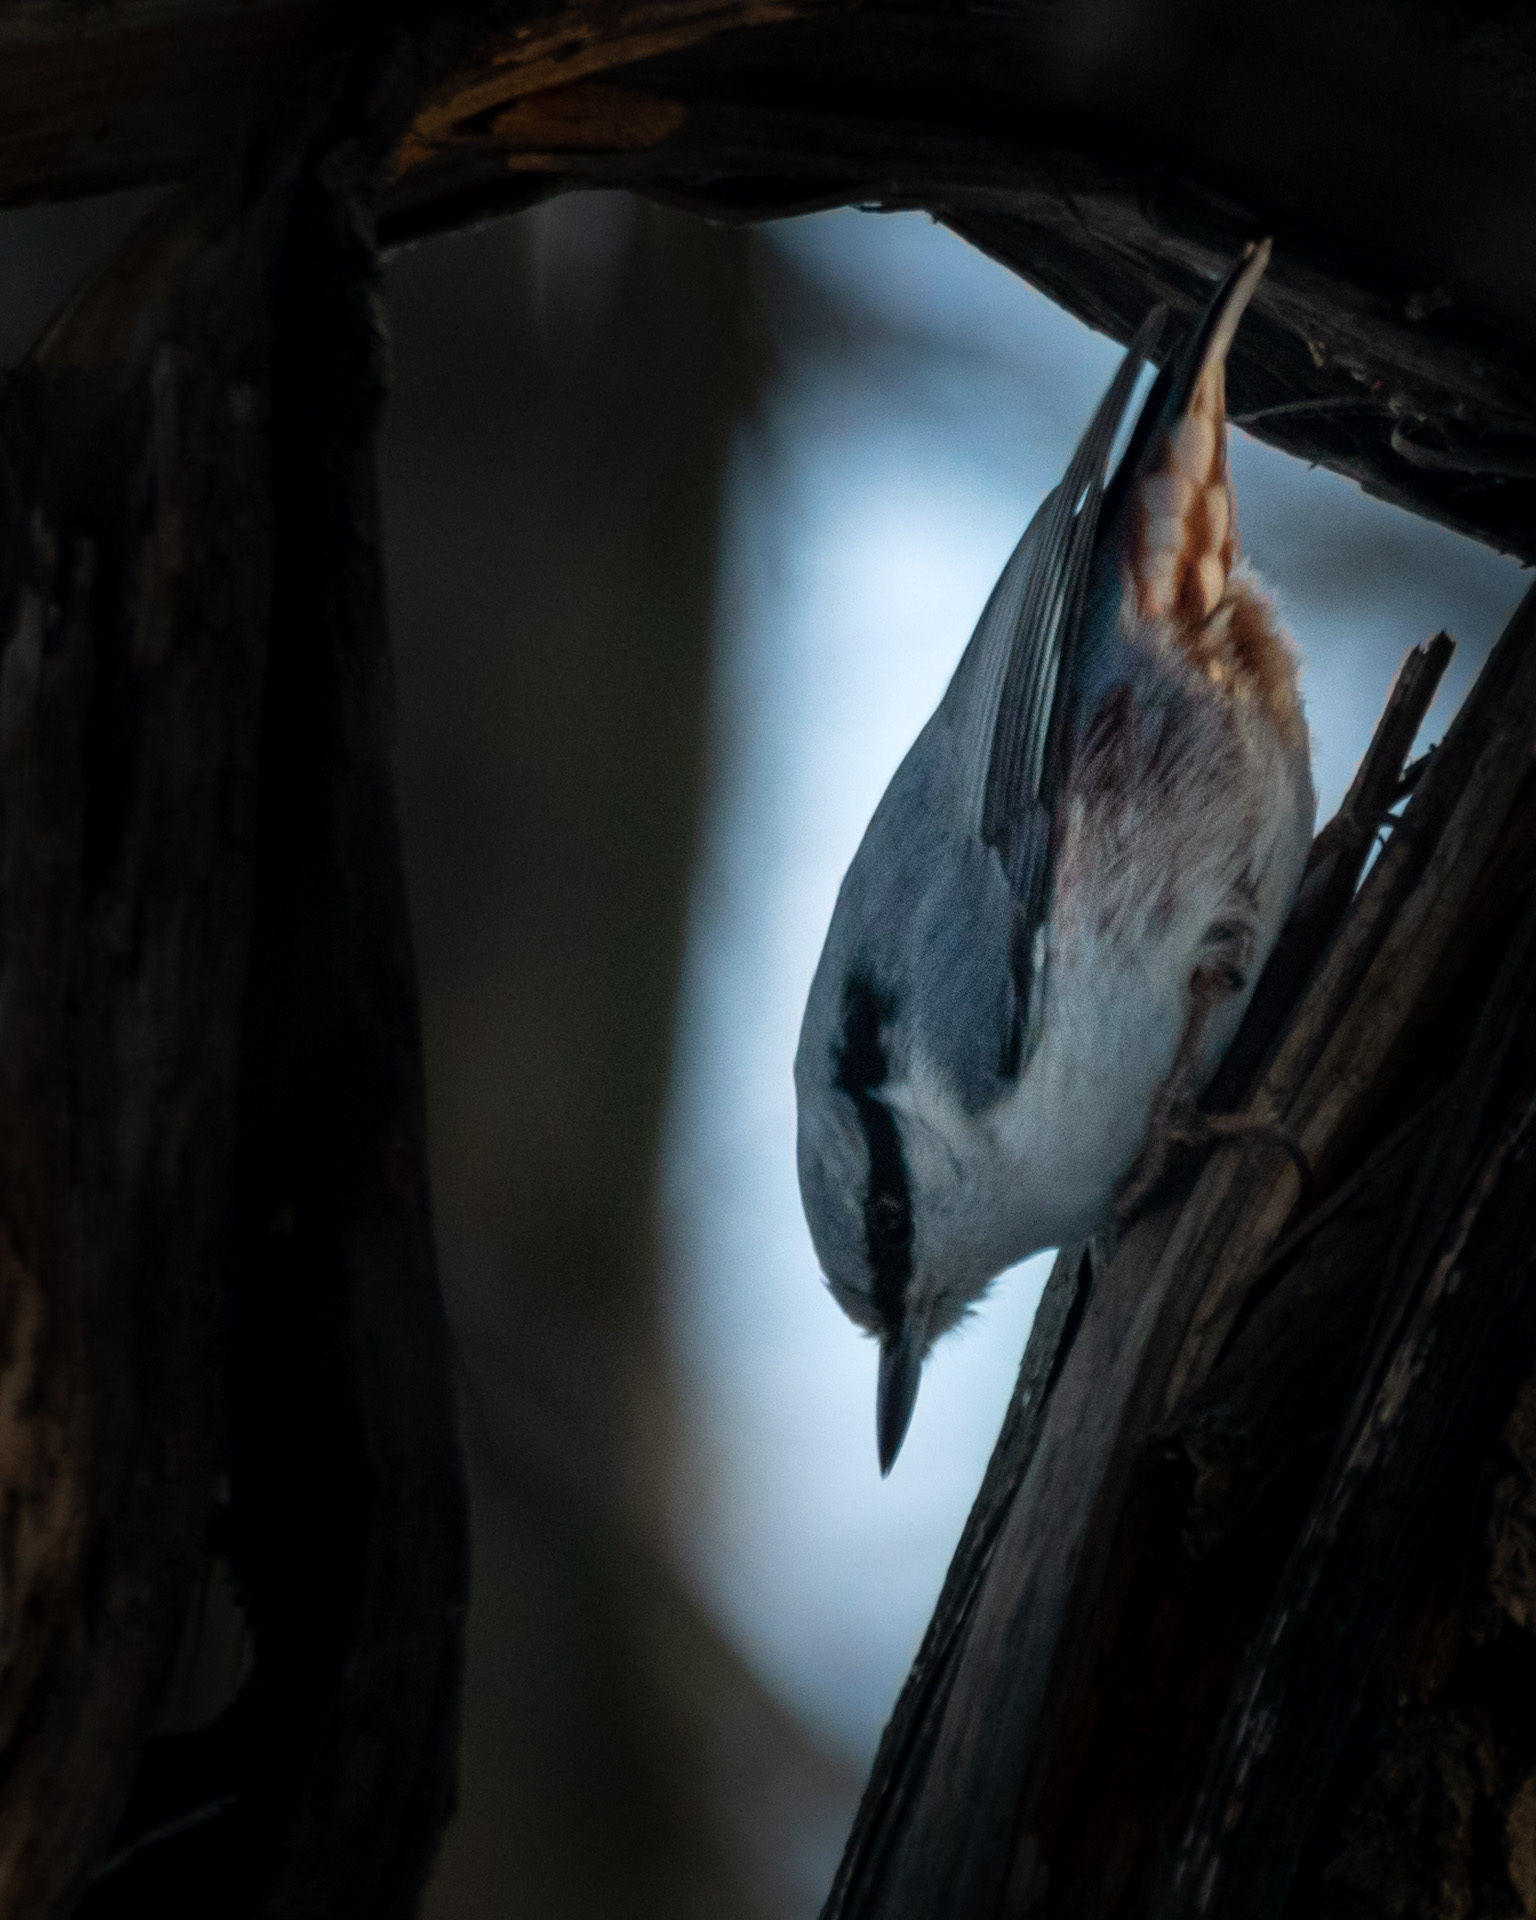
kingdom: Animalia
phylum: Chordata
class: Aves
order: Passeriformes
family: Sittidae
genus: Sitta
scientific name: Sitta europaea
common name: Eurasian nuthatch
